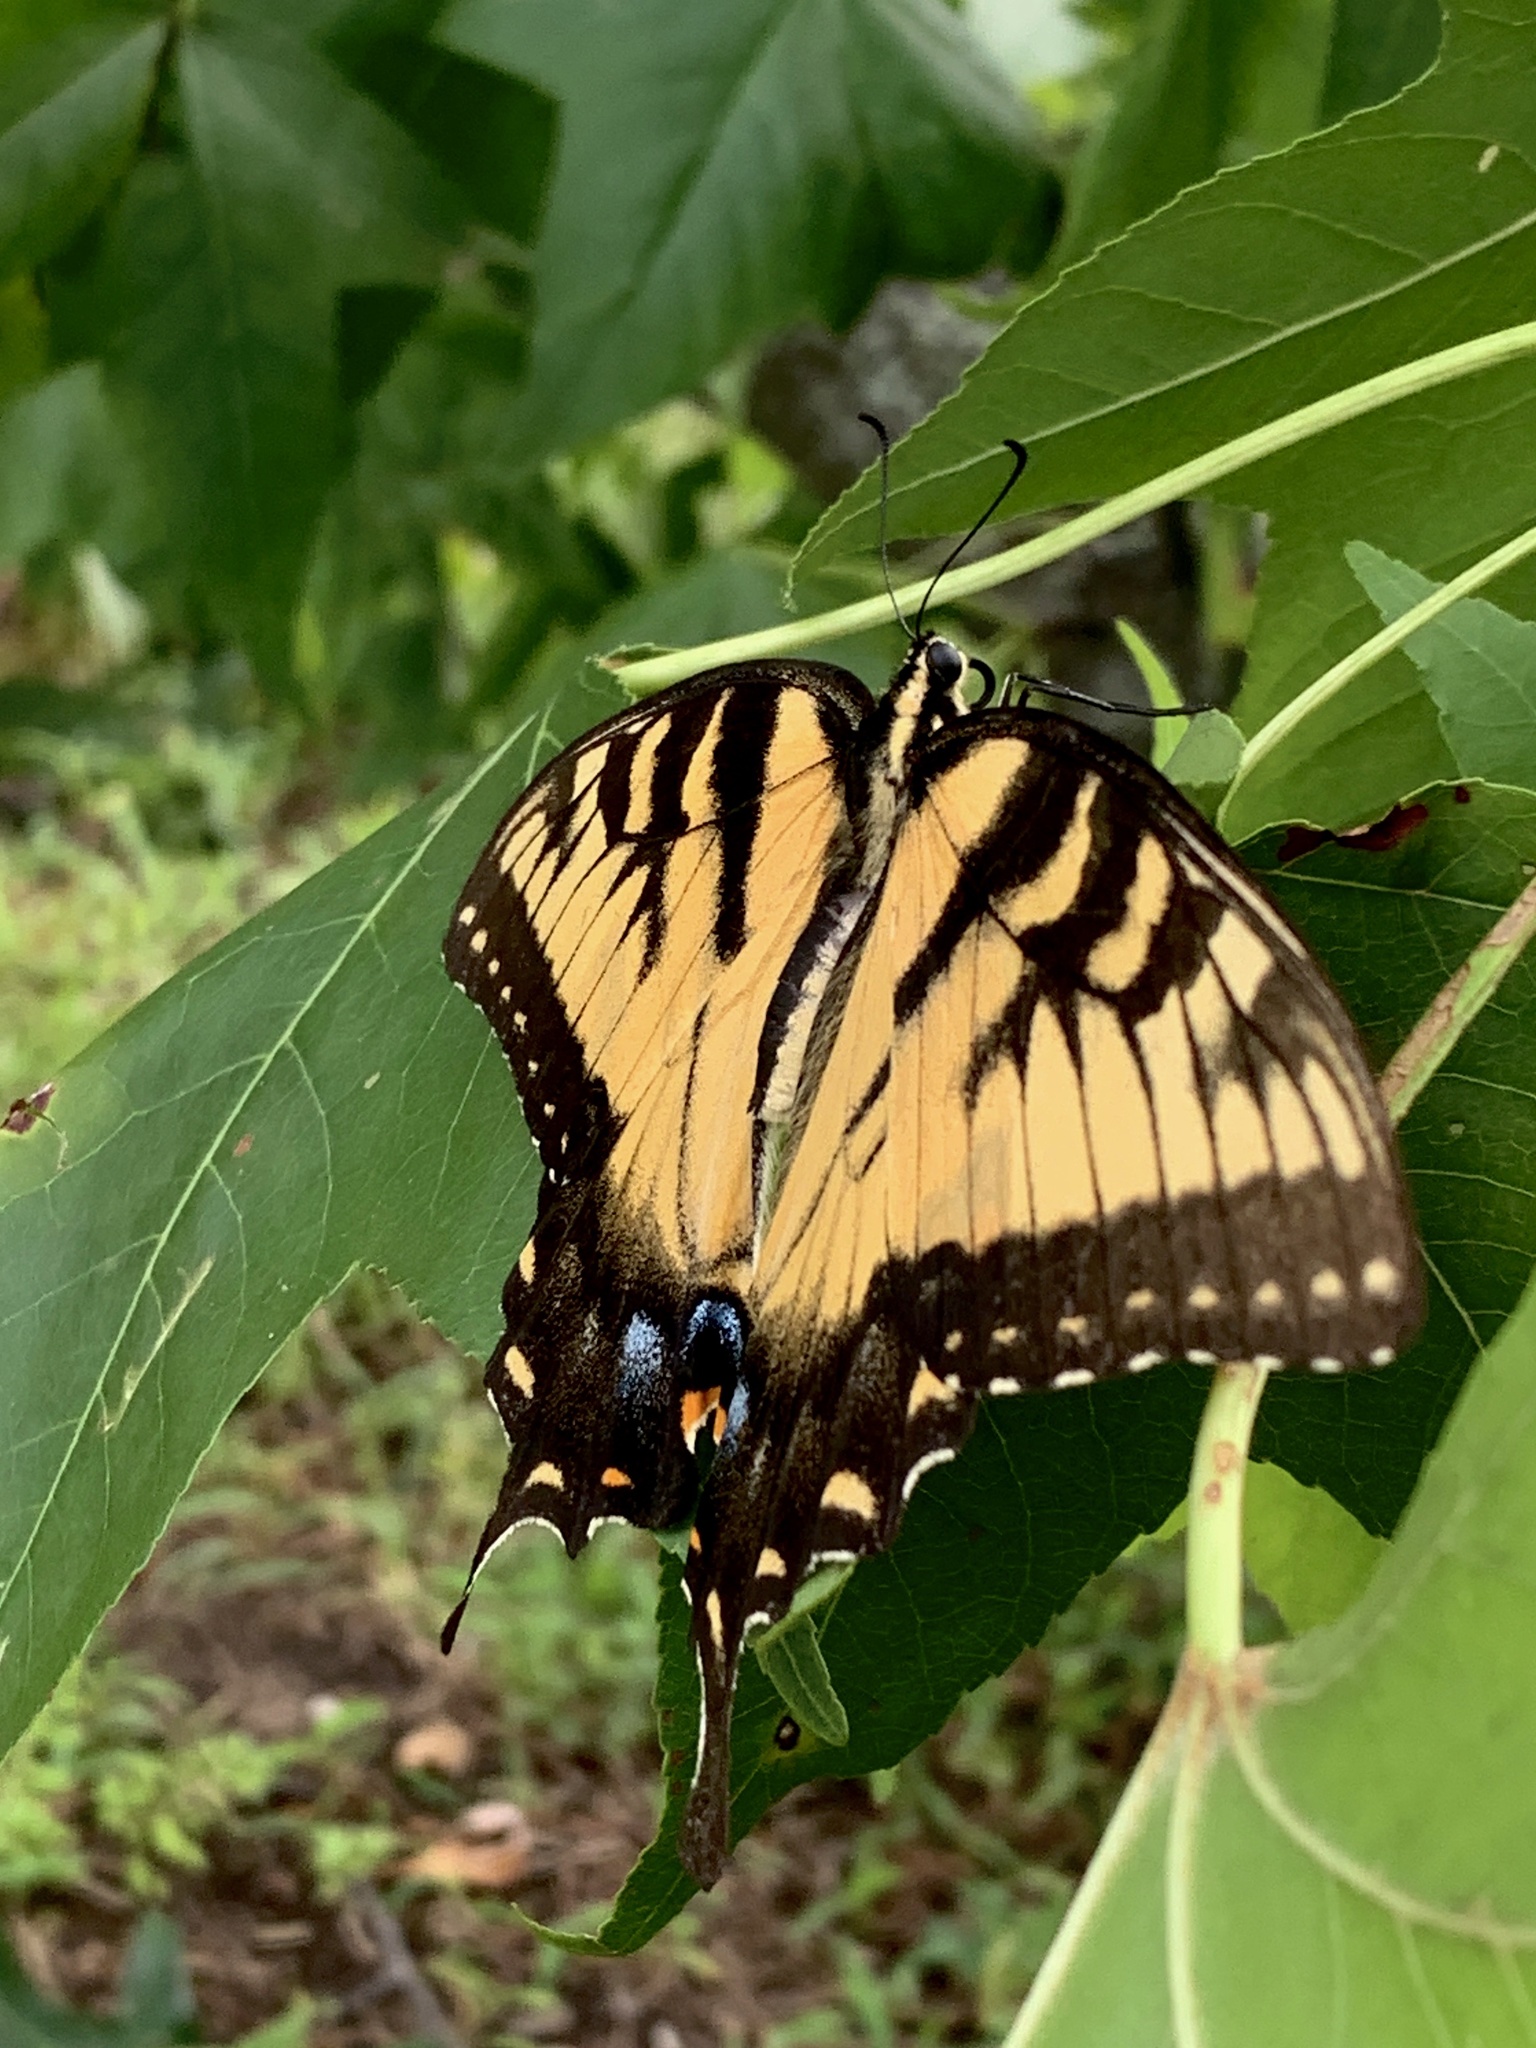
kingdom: Animalia
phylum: Arthropoda
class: Insecta
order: Lepidoptera
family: Papilionidae
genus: Papilio
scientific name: Papilio glaucus
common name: Tiger swallowtail
